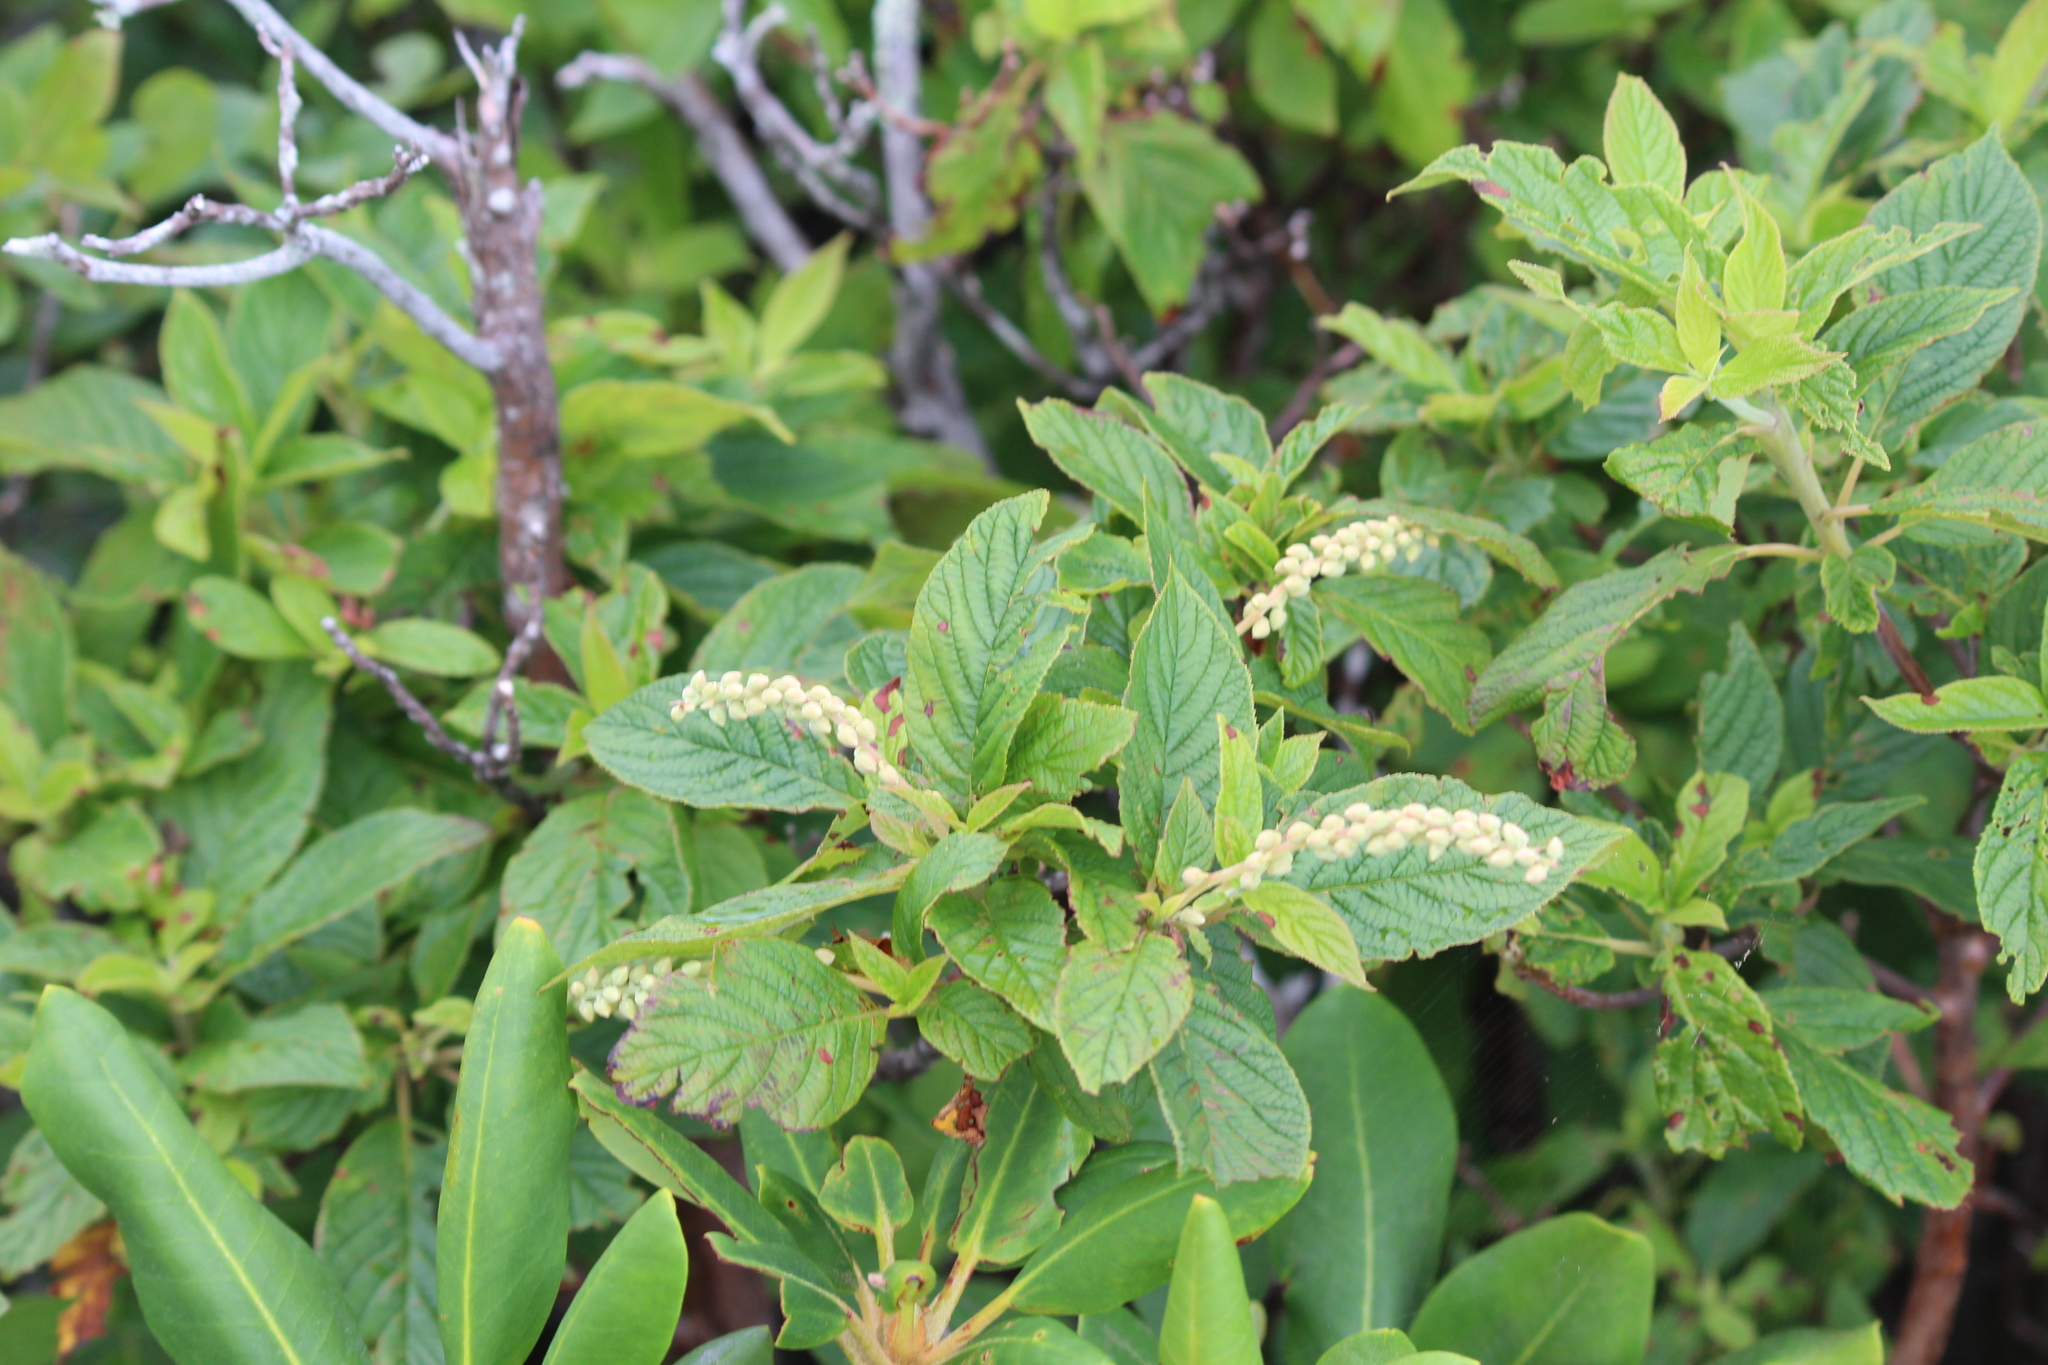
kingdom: Plantae
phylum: Tracheophyta
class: Magnoliopsida
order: Ericales
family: Clethraceae
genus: Clethra
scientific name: Clethra acuminata
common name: Mountain sweet pepperbush
